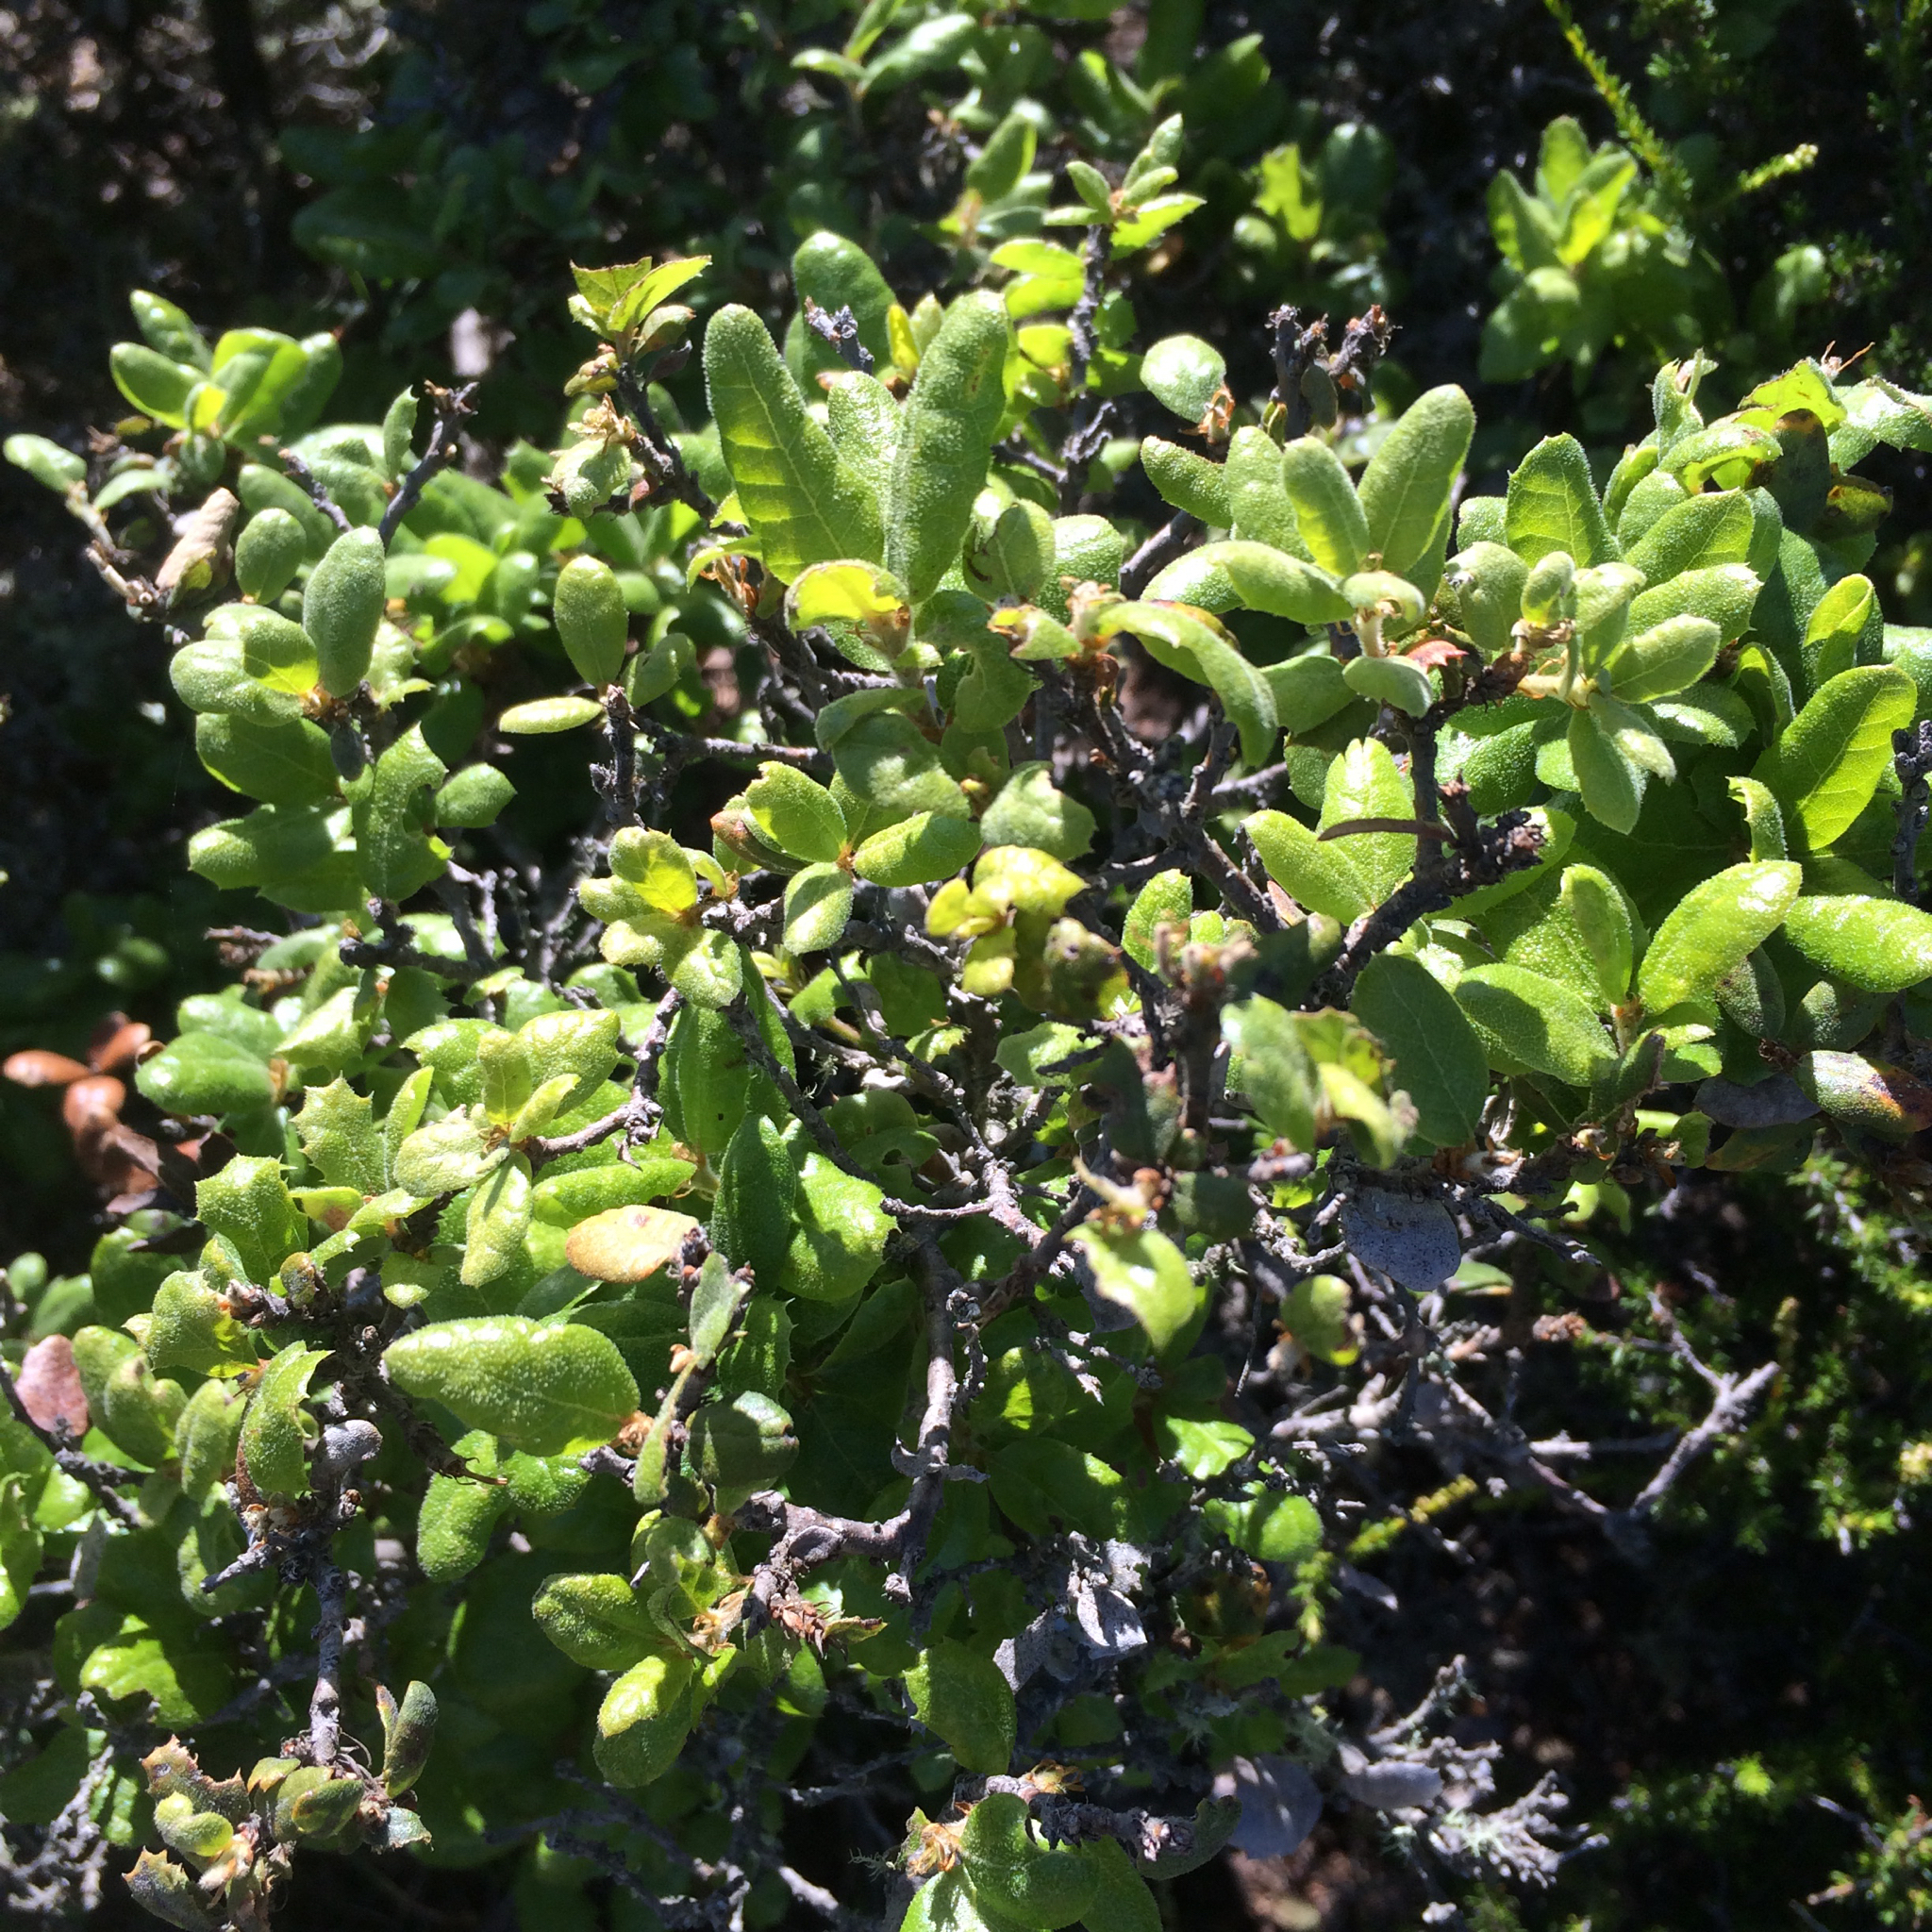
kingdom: Plantae
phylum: Tracheophyta
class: Magnoliopsida
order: Fagales
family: Fagaceae
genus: Quercus
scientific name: Quercus durata
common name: Leather oak
